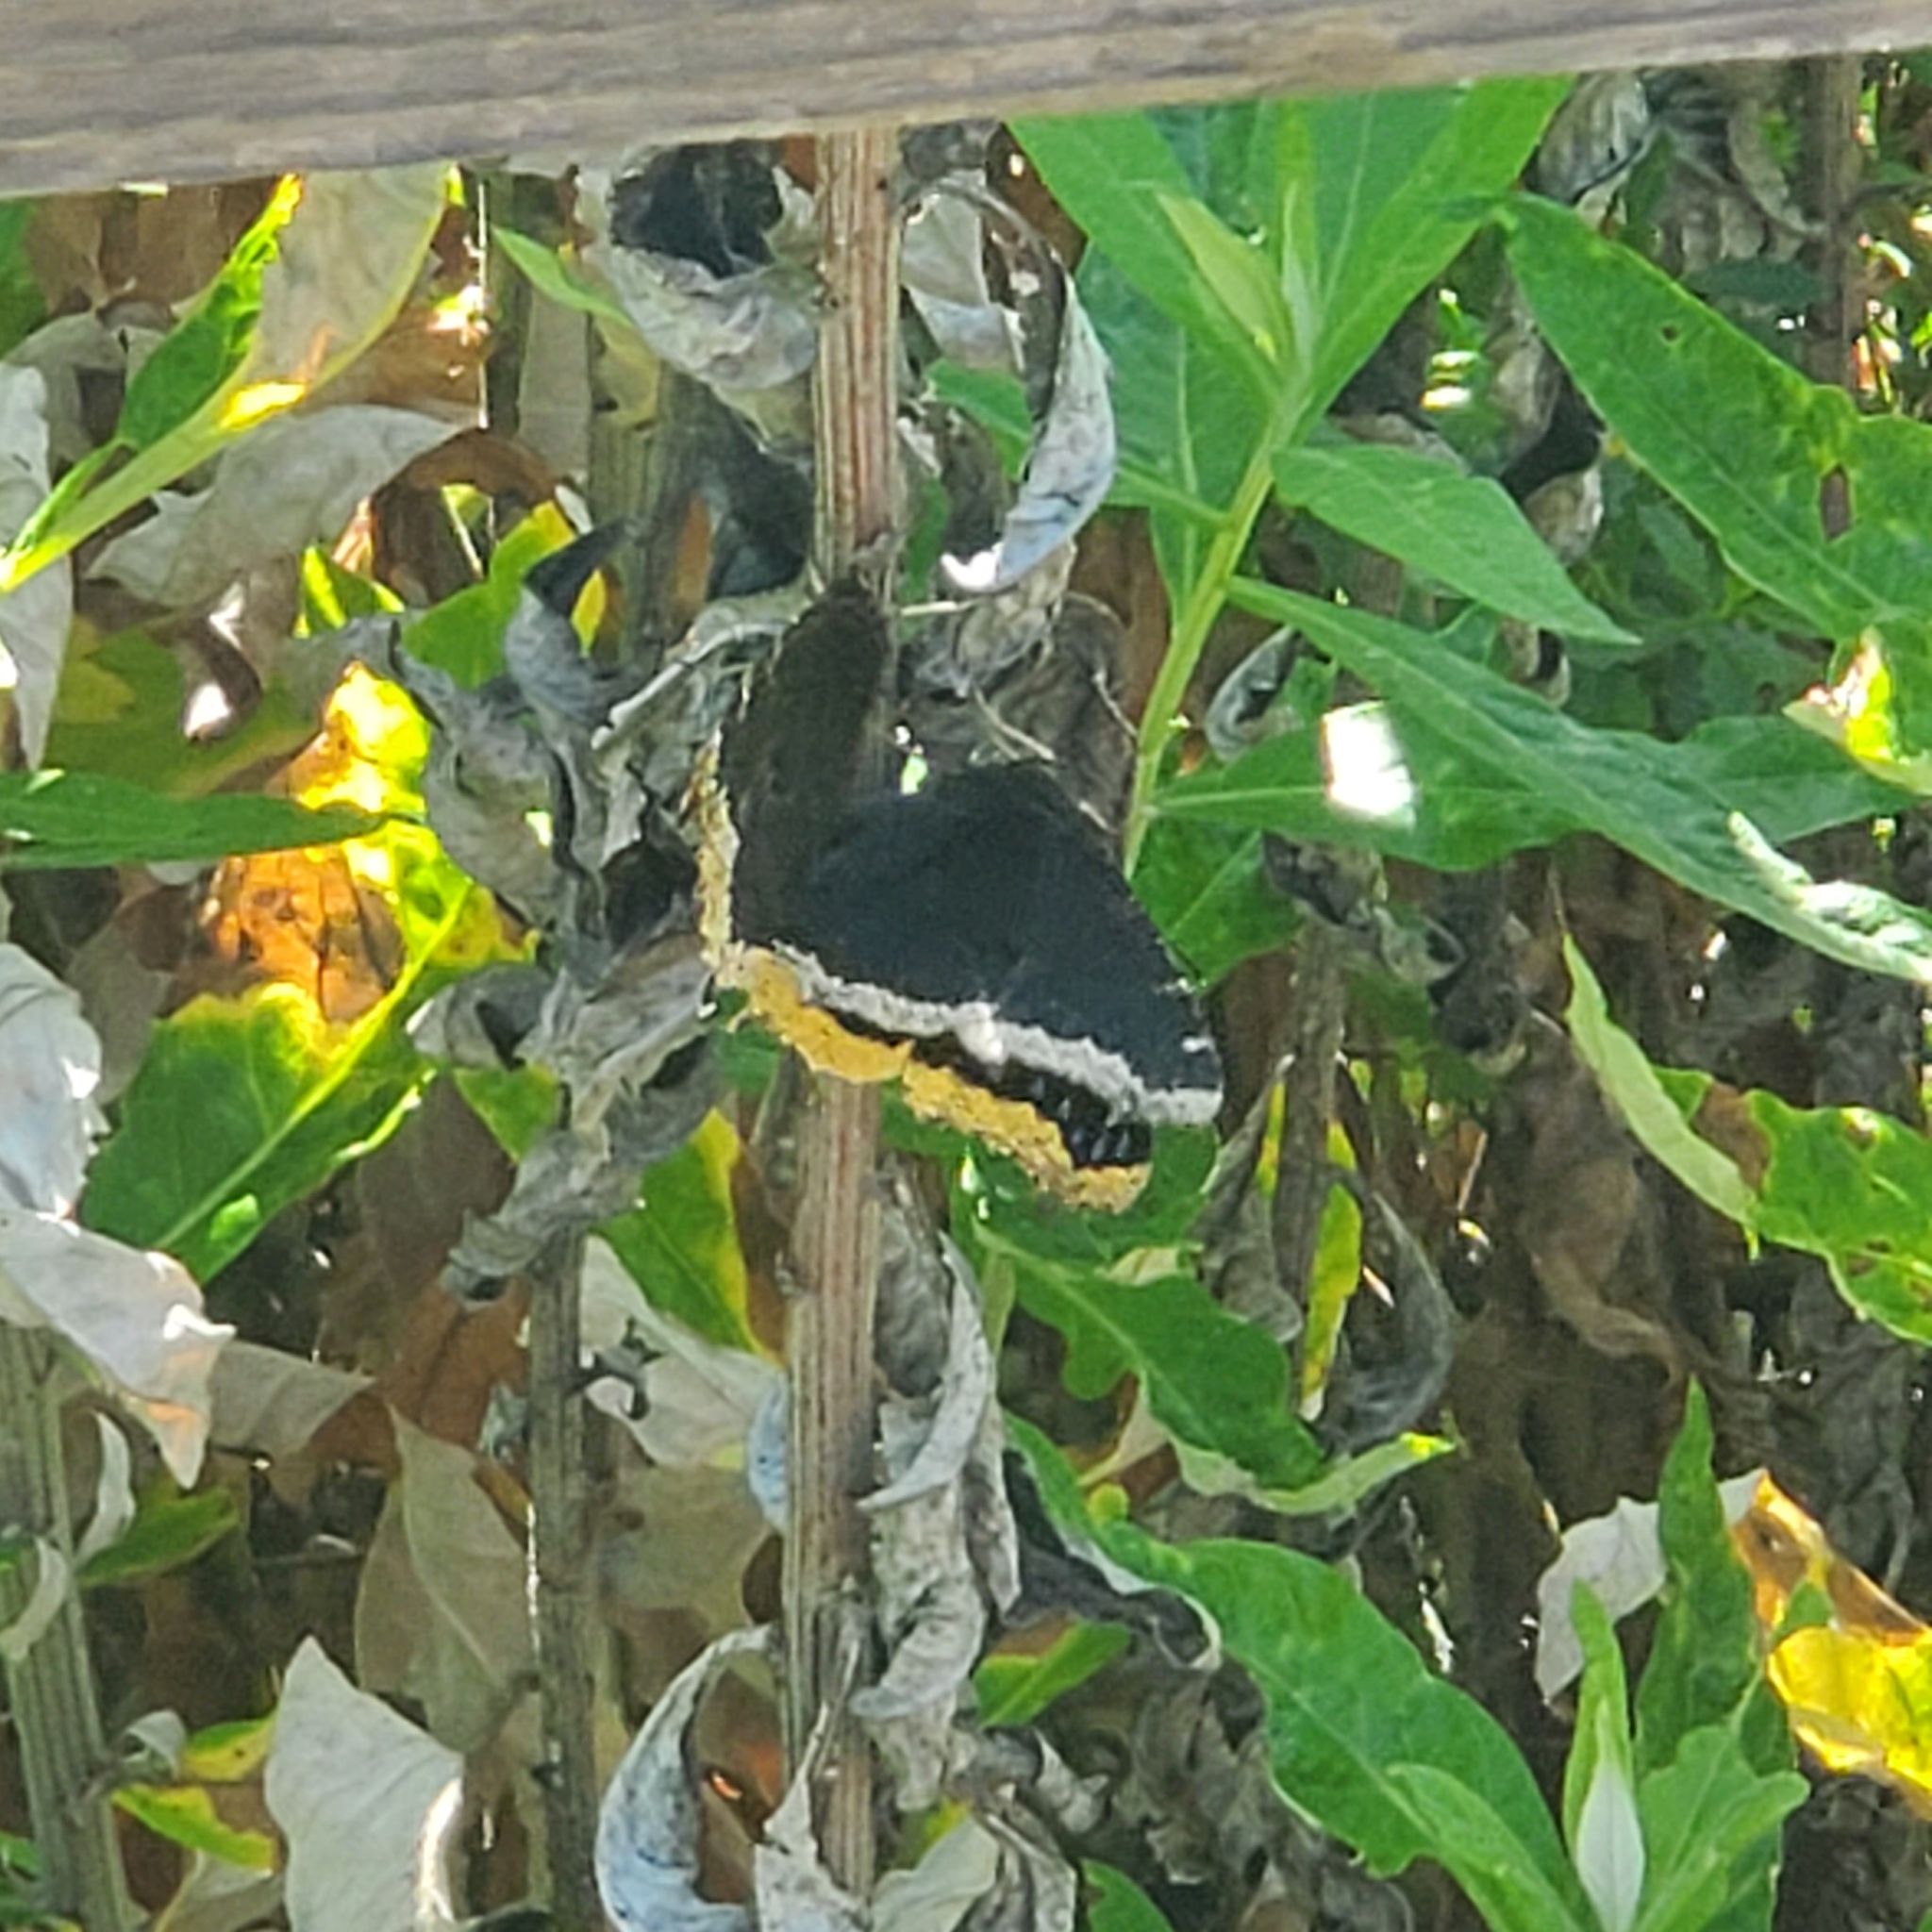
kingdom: Animalia
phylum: Arthropoda
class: Insecta
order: Lepidoptera
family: Nymphalidae
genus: Nymphalis
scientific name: Nymphalis antiopa
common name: Camberwell beauty
